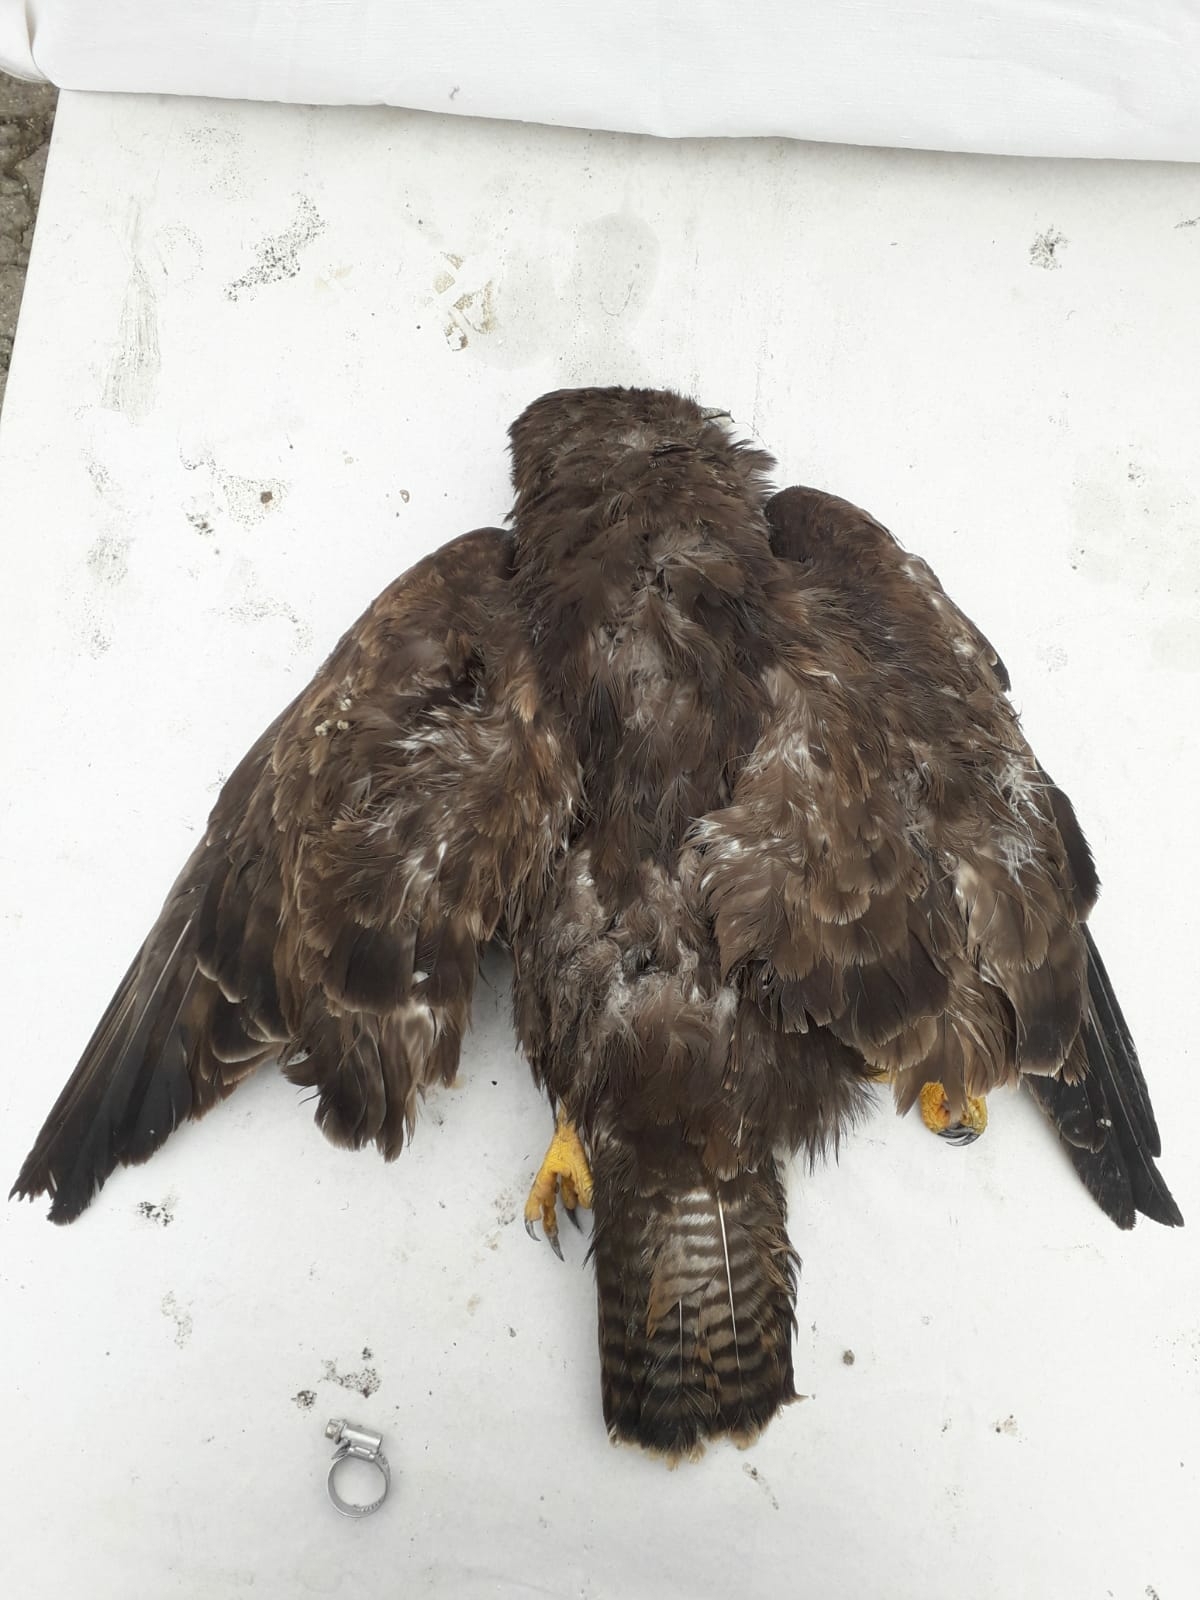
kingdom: Animalia
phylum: Chordata
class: Aves
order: Accipitriformes
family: Accipitridae
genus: Buteo
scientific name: Buteo buteo
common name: Common buzzard
